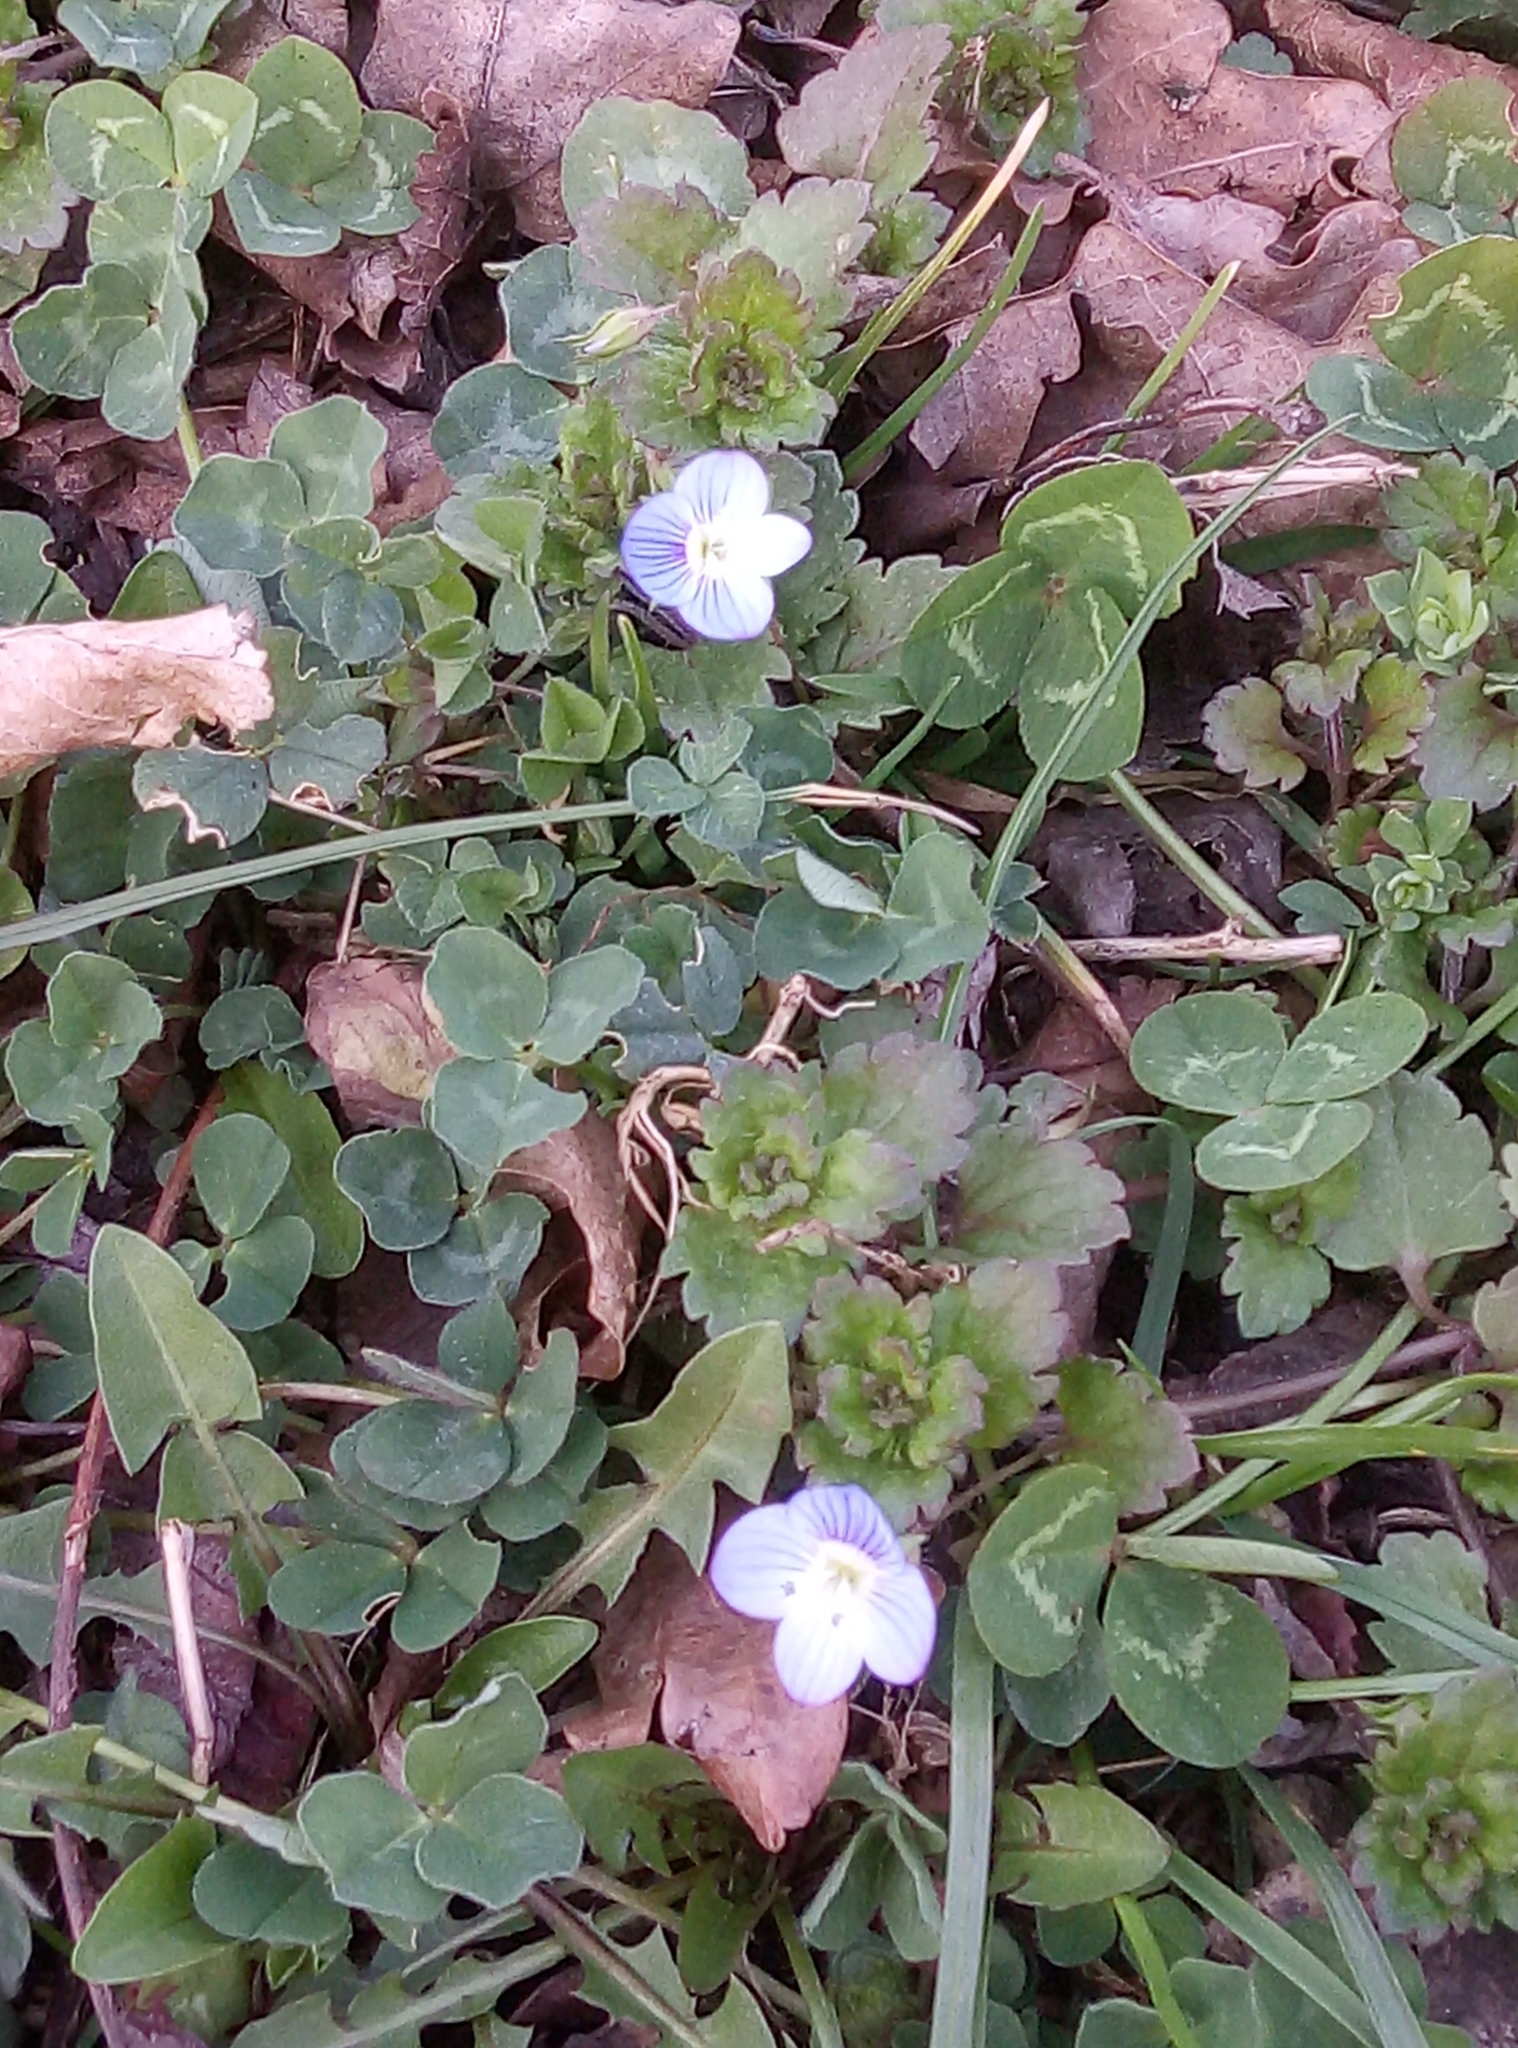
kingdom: Plantae
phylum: Tracheophyta
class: Magnoliopsida
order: Lamiales
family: Plantaginaceae
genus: Veronica
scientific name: Veronica persica
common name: Common field-speedwell
